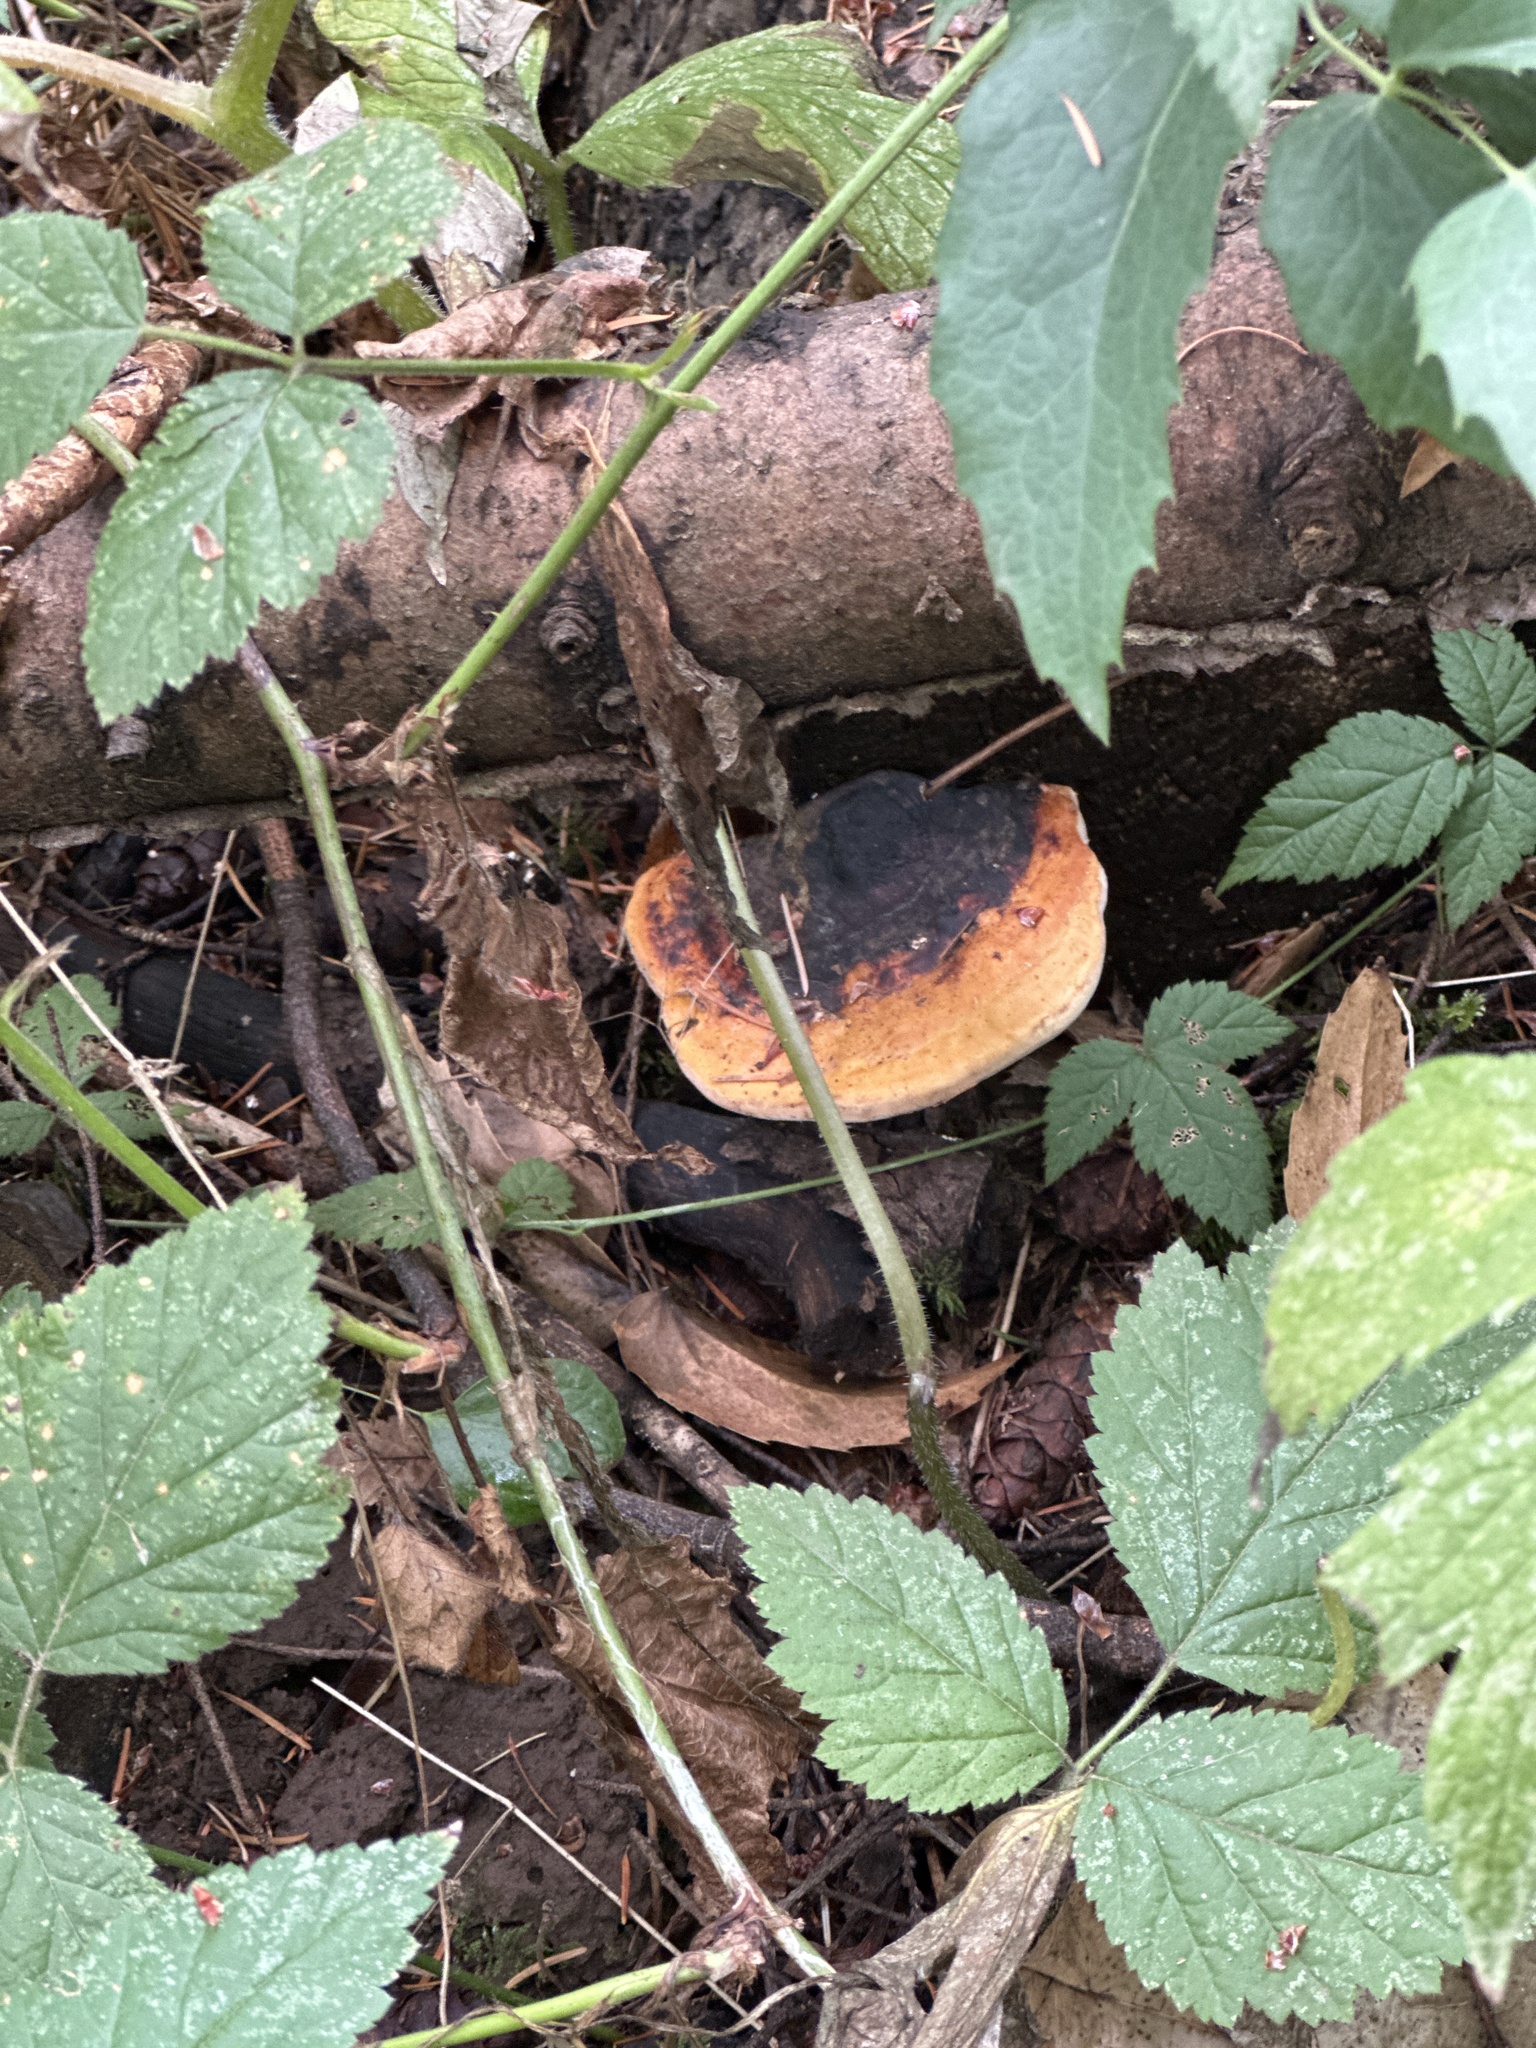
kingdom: Fungi
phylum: Basidiomycota
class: Agaricomycetes
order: Polyporales
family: Fomitopsidaceae
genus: Fomitopsis
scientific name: Fomitopsis mounceae
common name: Northern red belt
